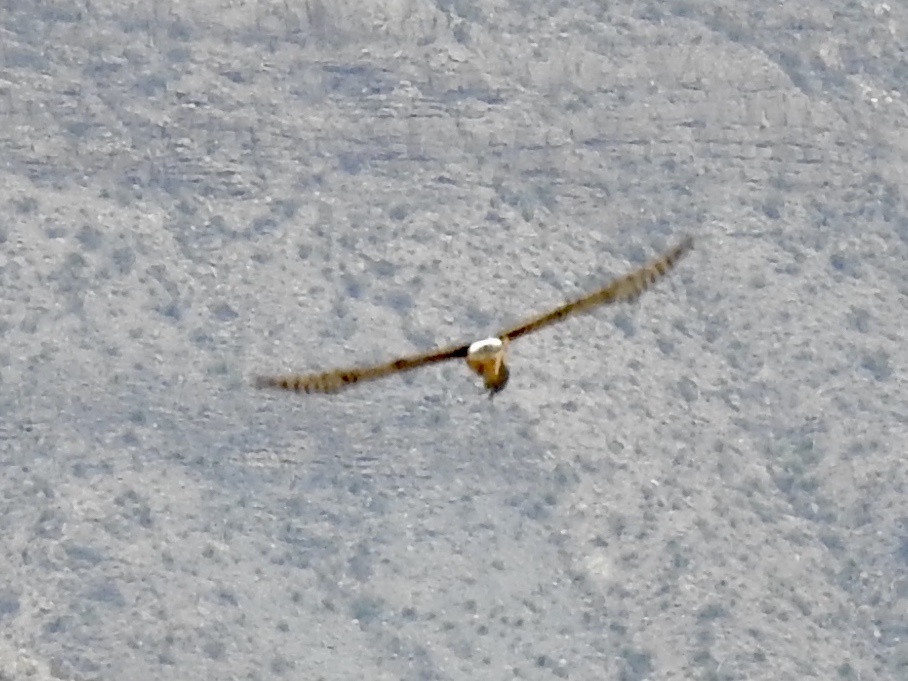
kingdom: Animalia
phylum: Chordata
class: Aves
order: Accipitriformes
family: Accipitridae
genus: Circus
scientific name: Circus cyaneus
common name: Hen harrier
